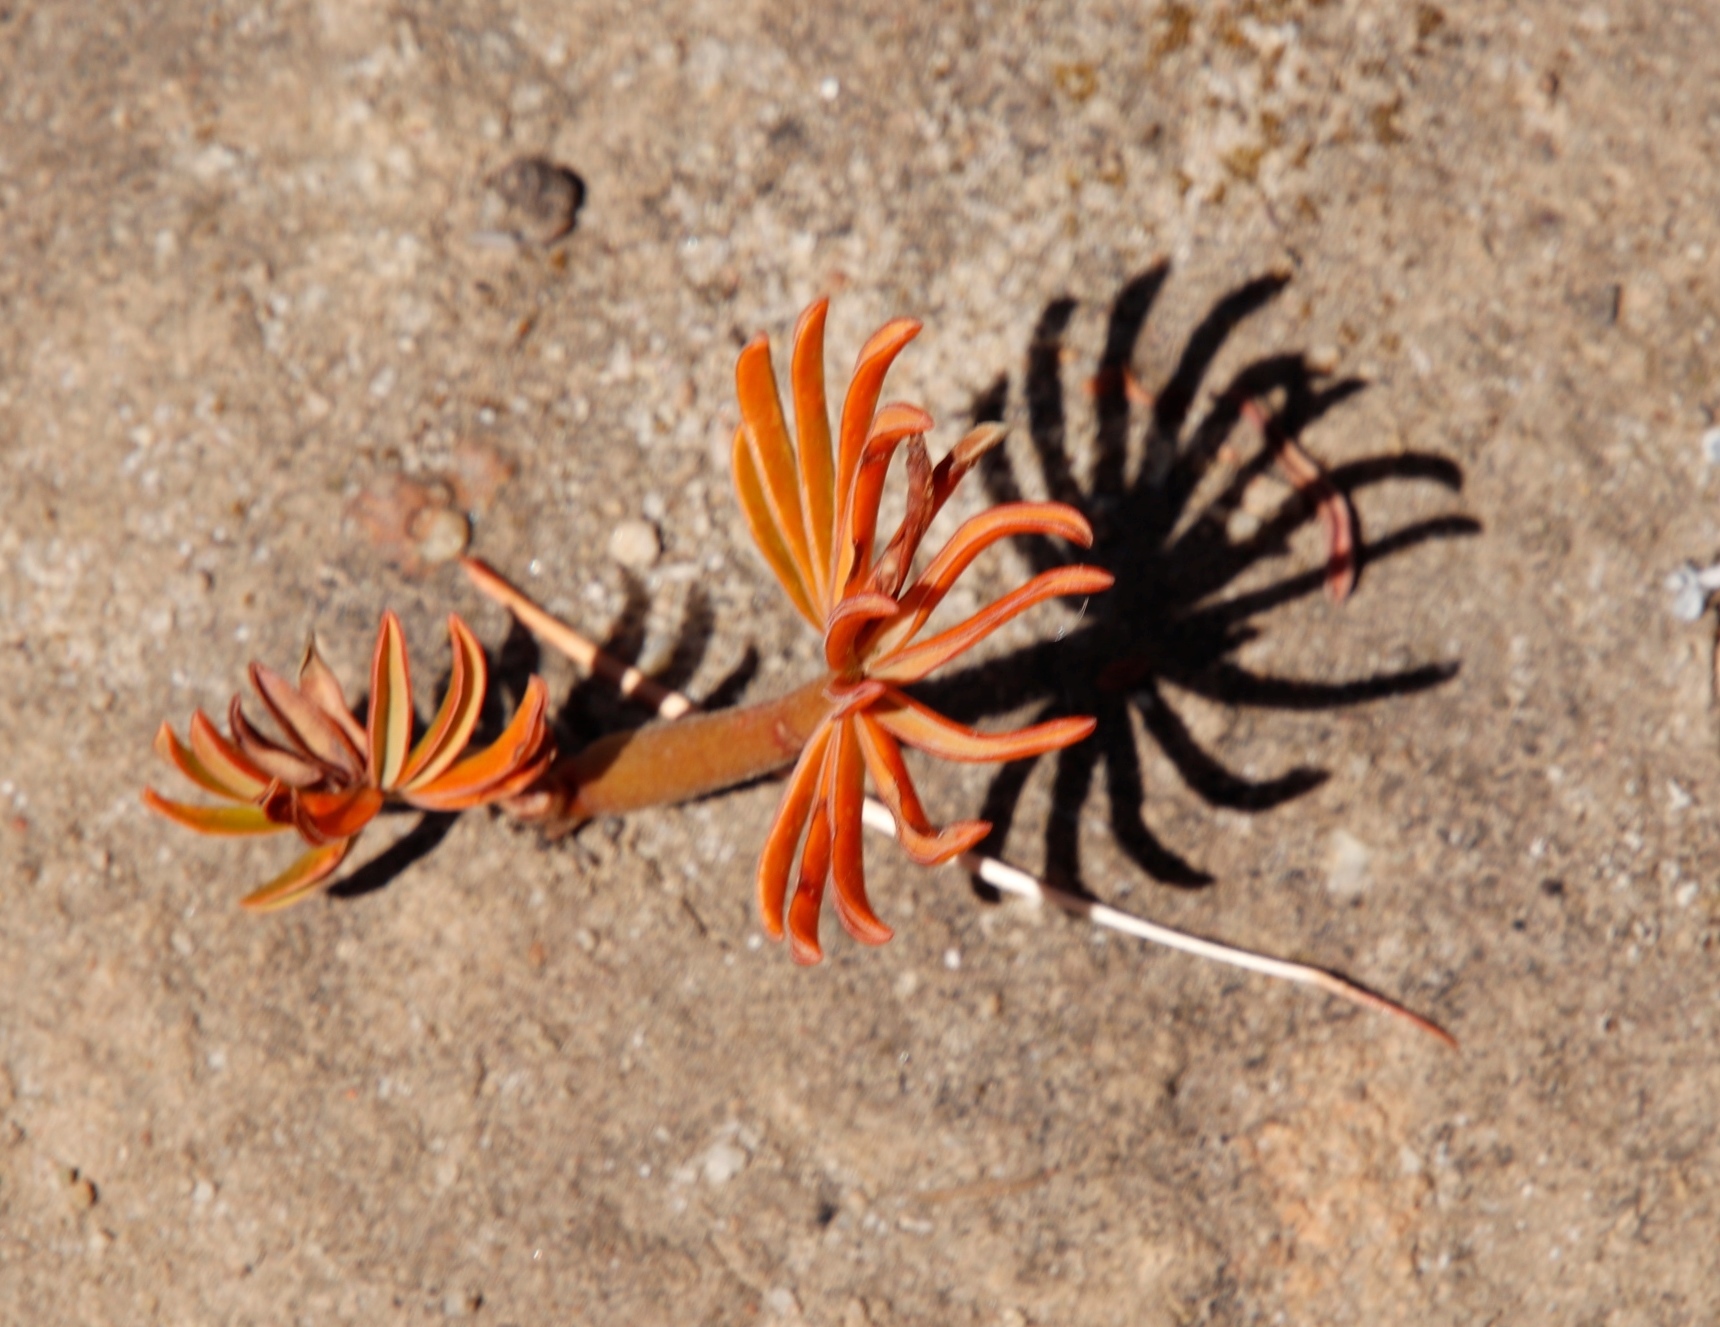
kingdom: Plantae
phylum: Tracheophyta
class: Magnoliopsida
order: Oxalidales
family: Oxalidaceae
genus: Oxalis
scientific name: Oxalis flava
